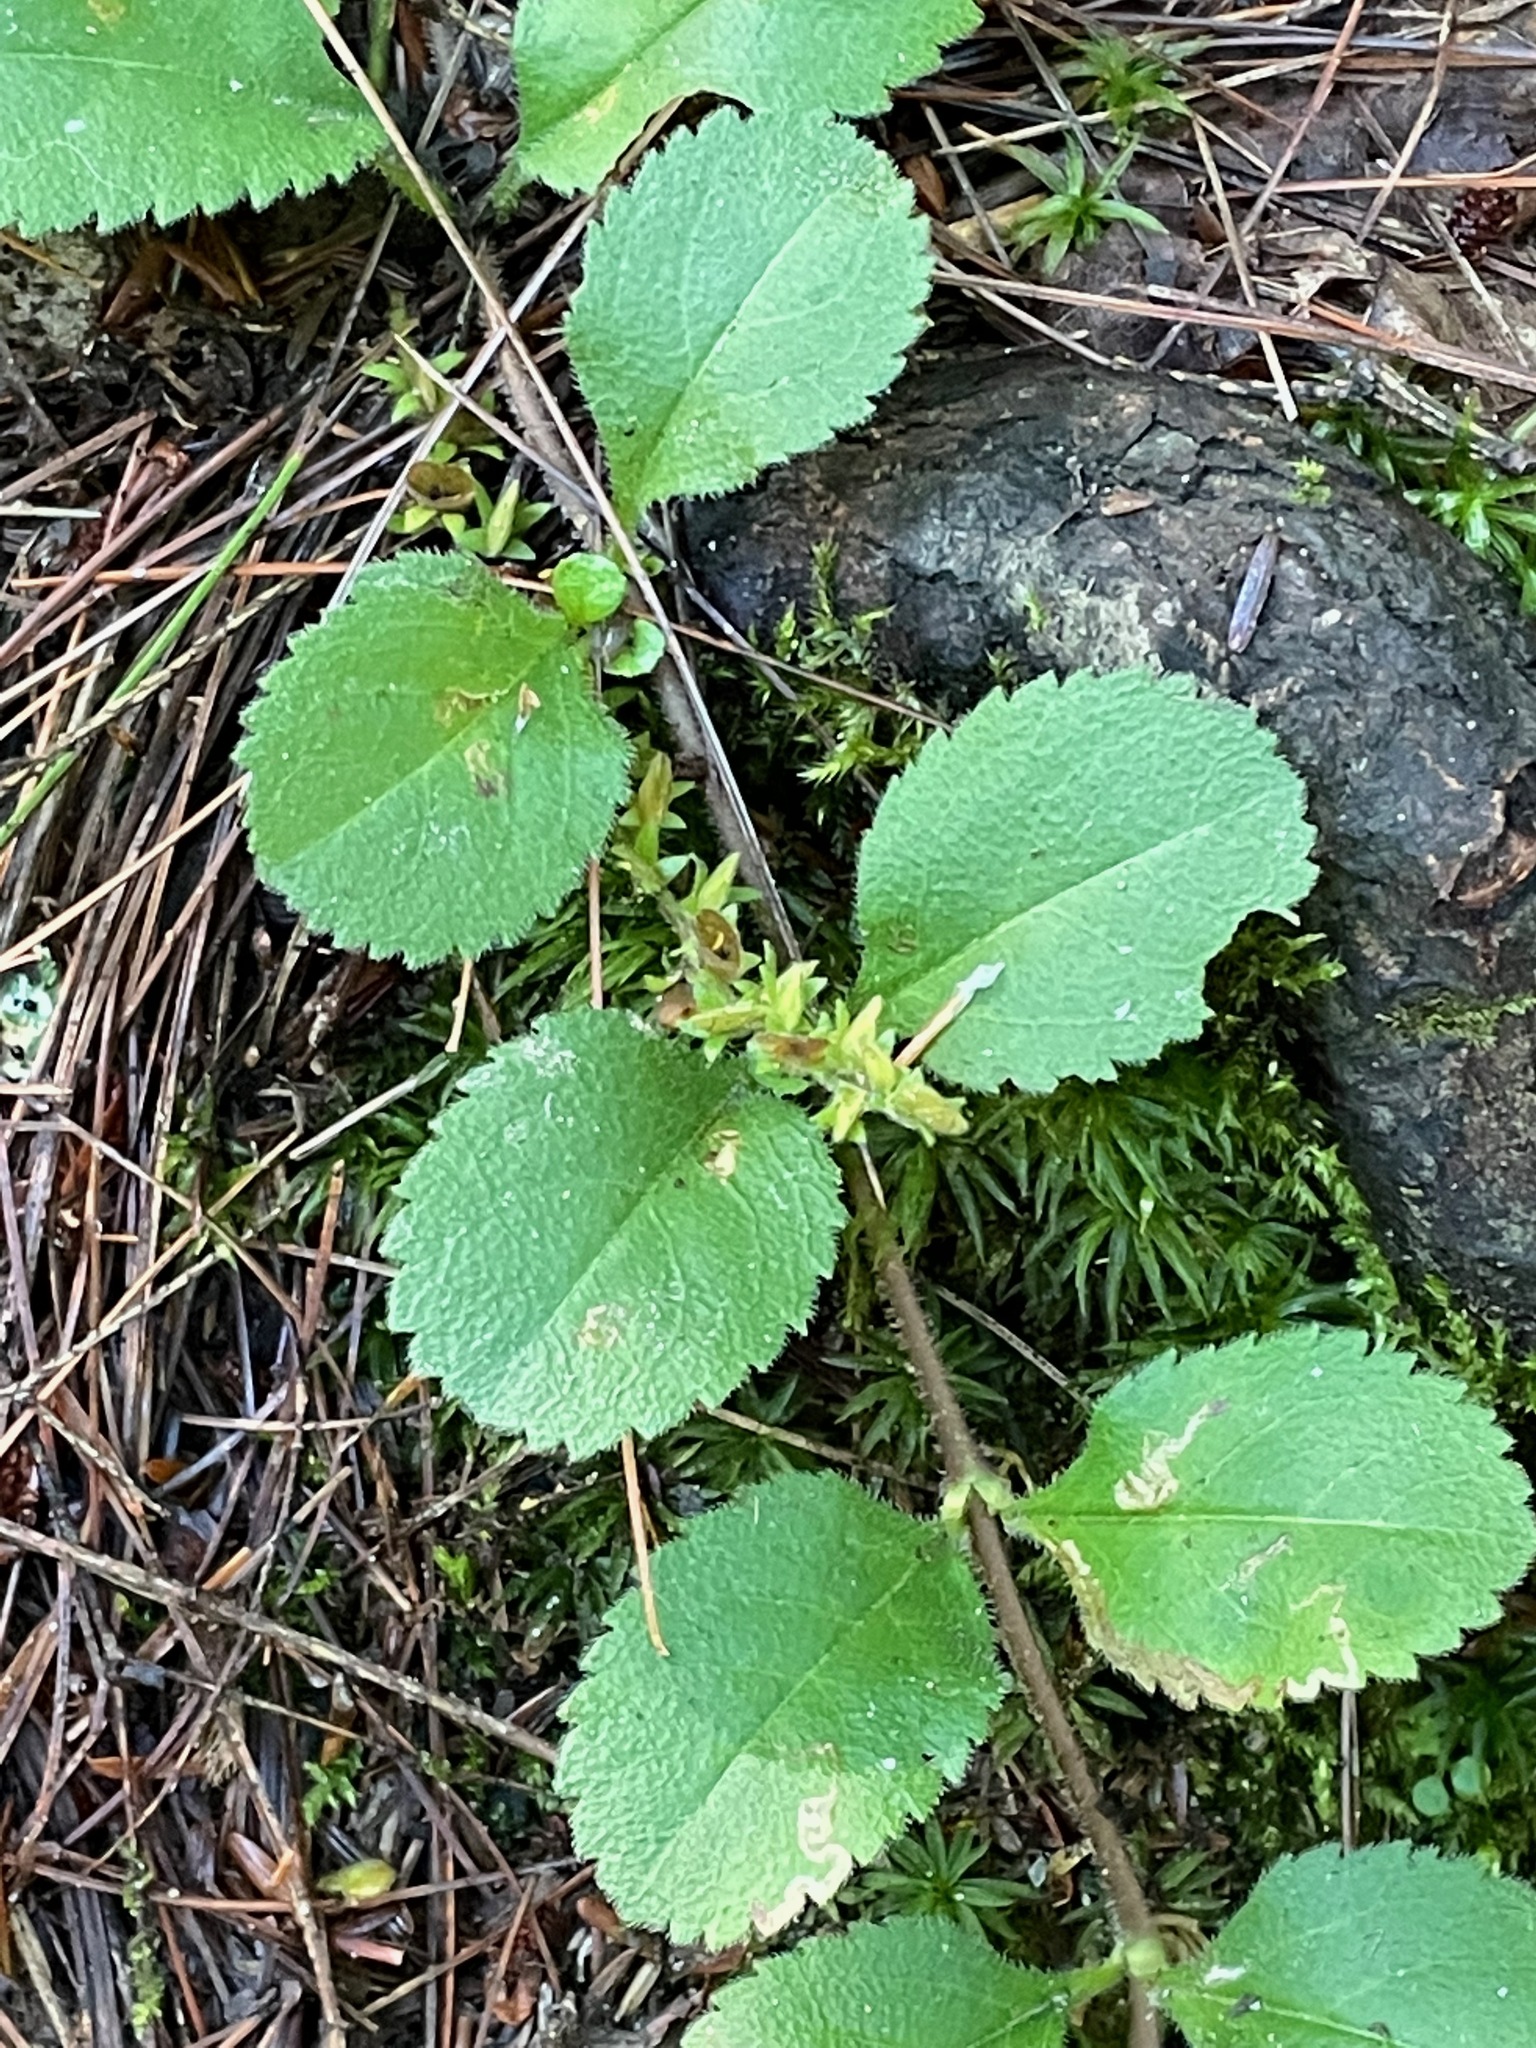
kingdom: Plantae
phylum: Tracheophyta
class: Magnoliopsida
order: Lamiales
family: Plantaginaceae
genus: Veronica
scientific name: Veronica officinalis
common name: Common speedwell
